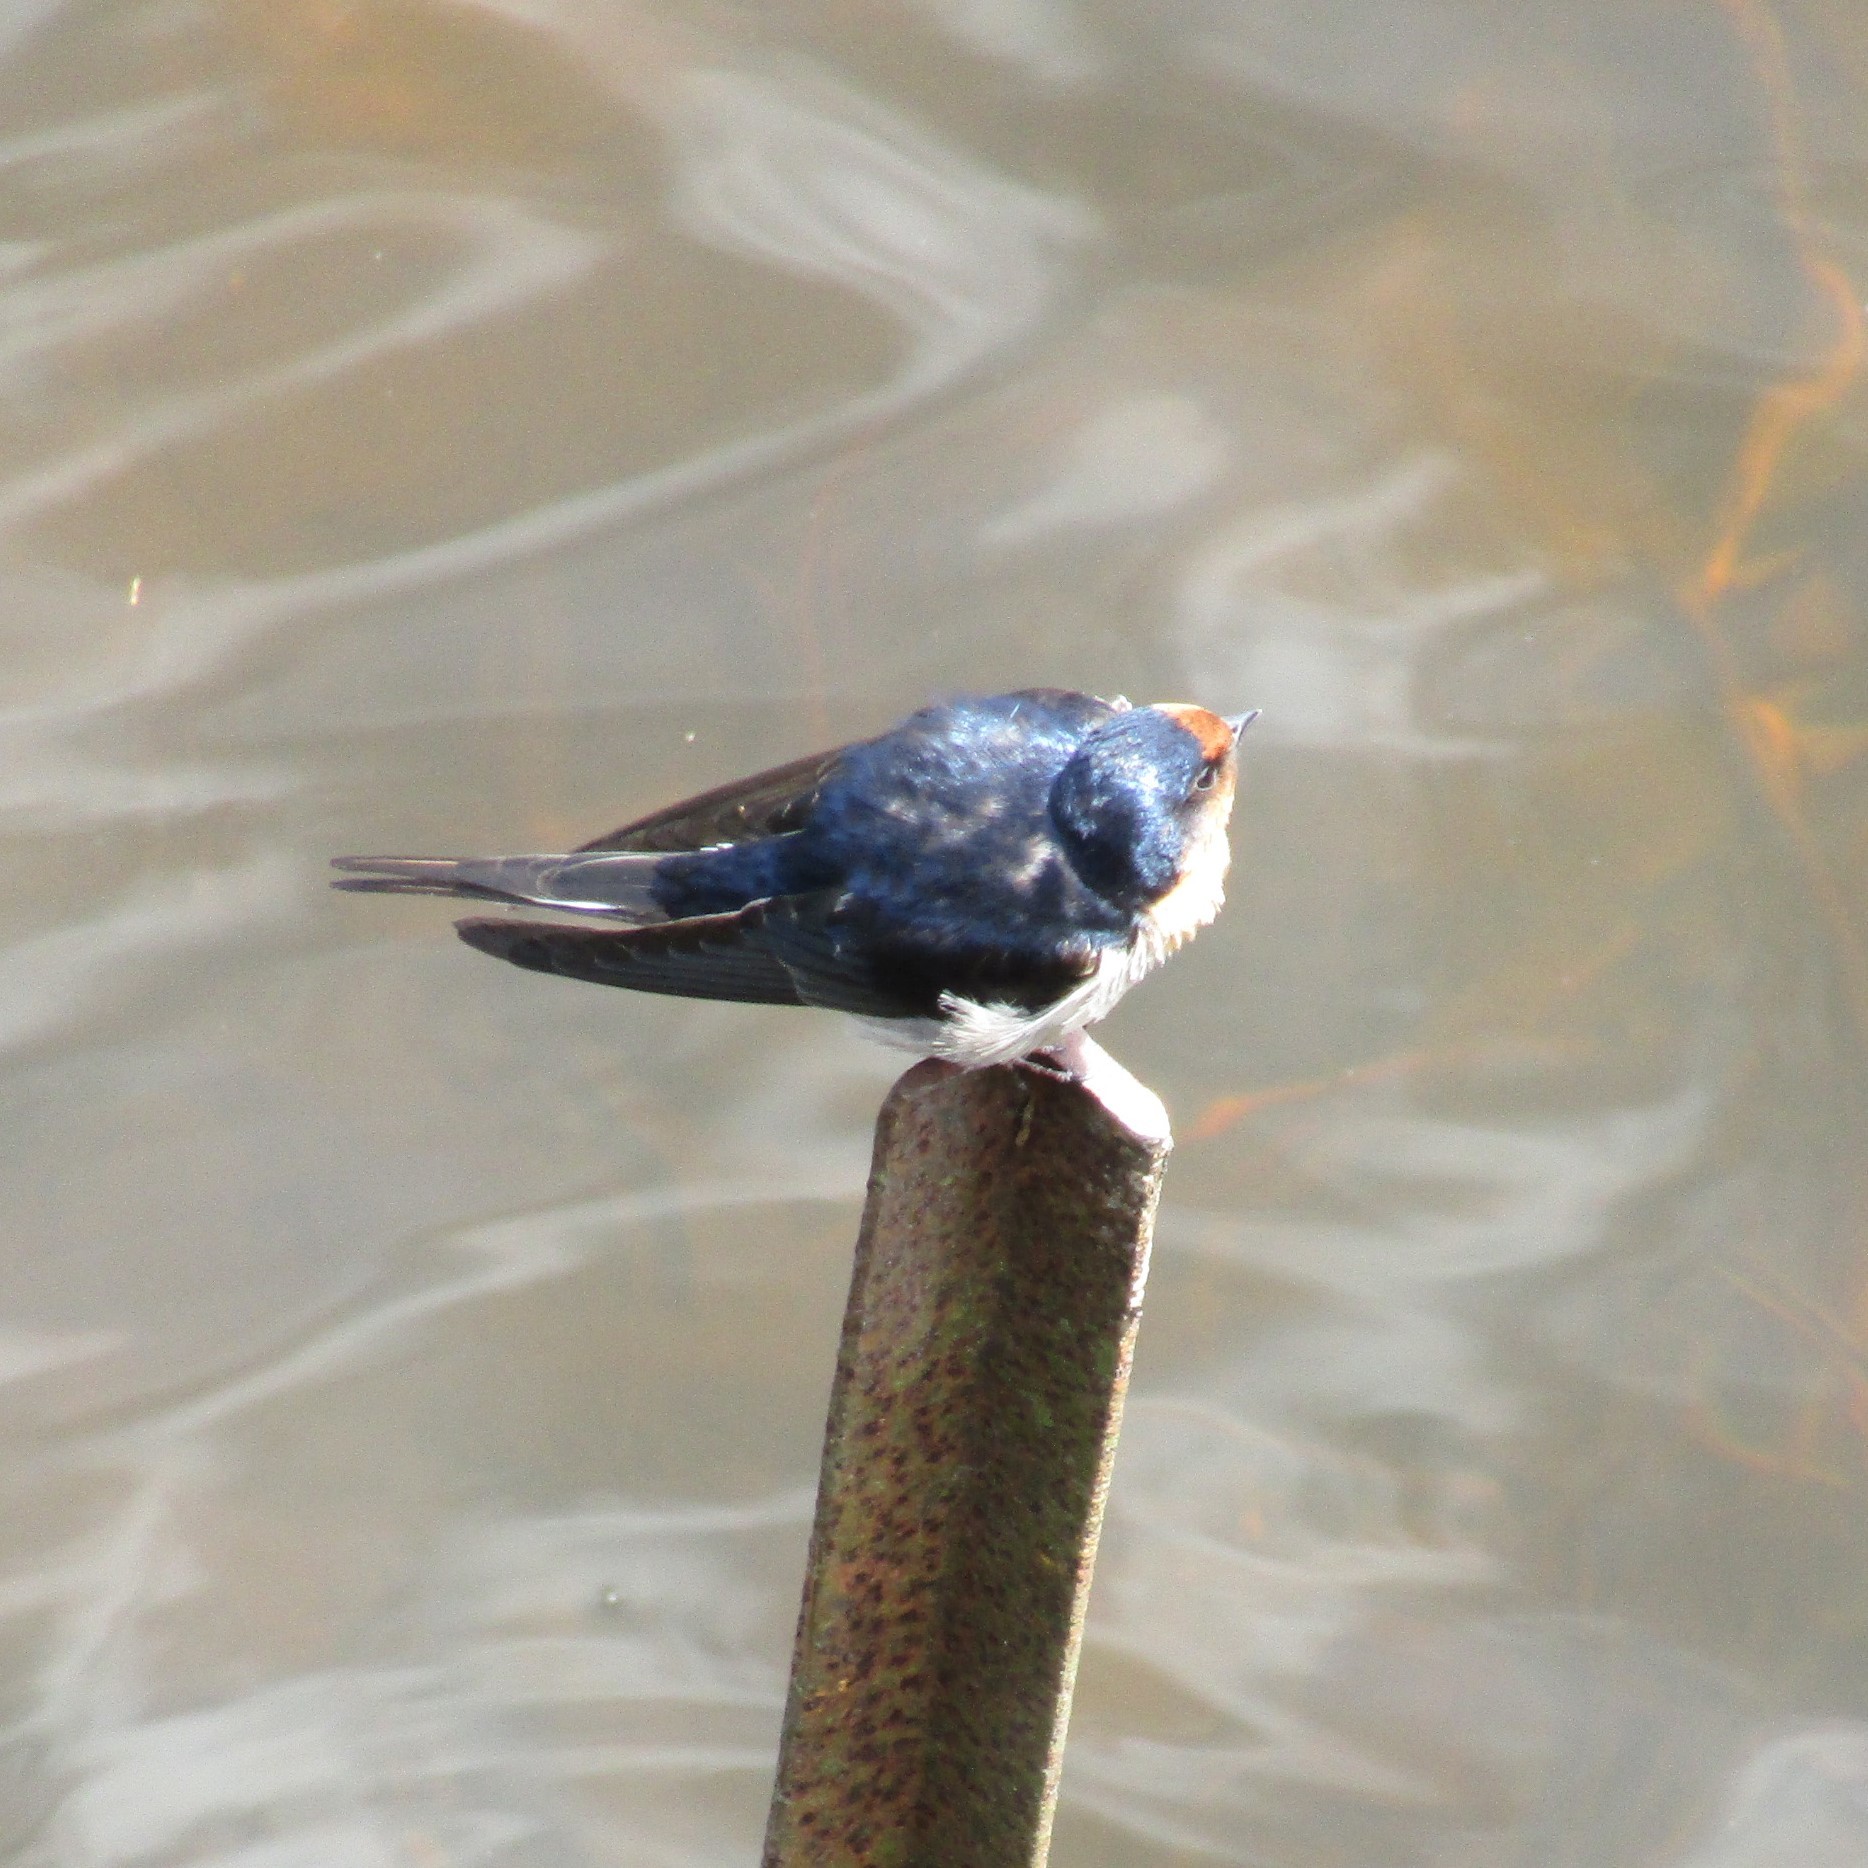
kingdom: Animalia
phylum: Chordata
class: Aves
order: Passeriformes
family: Hirundinidae
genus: Hirundo
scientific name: Hirundo neoxena
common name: Welcome swallow
